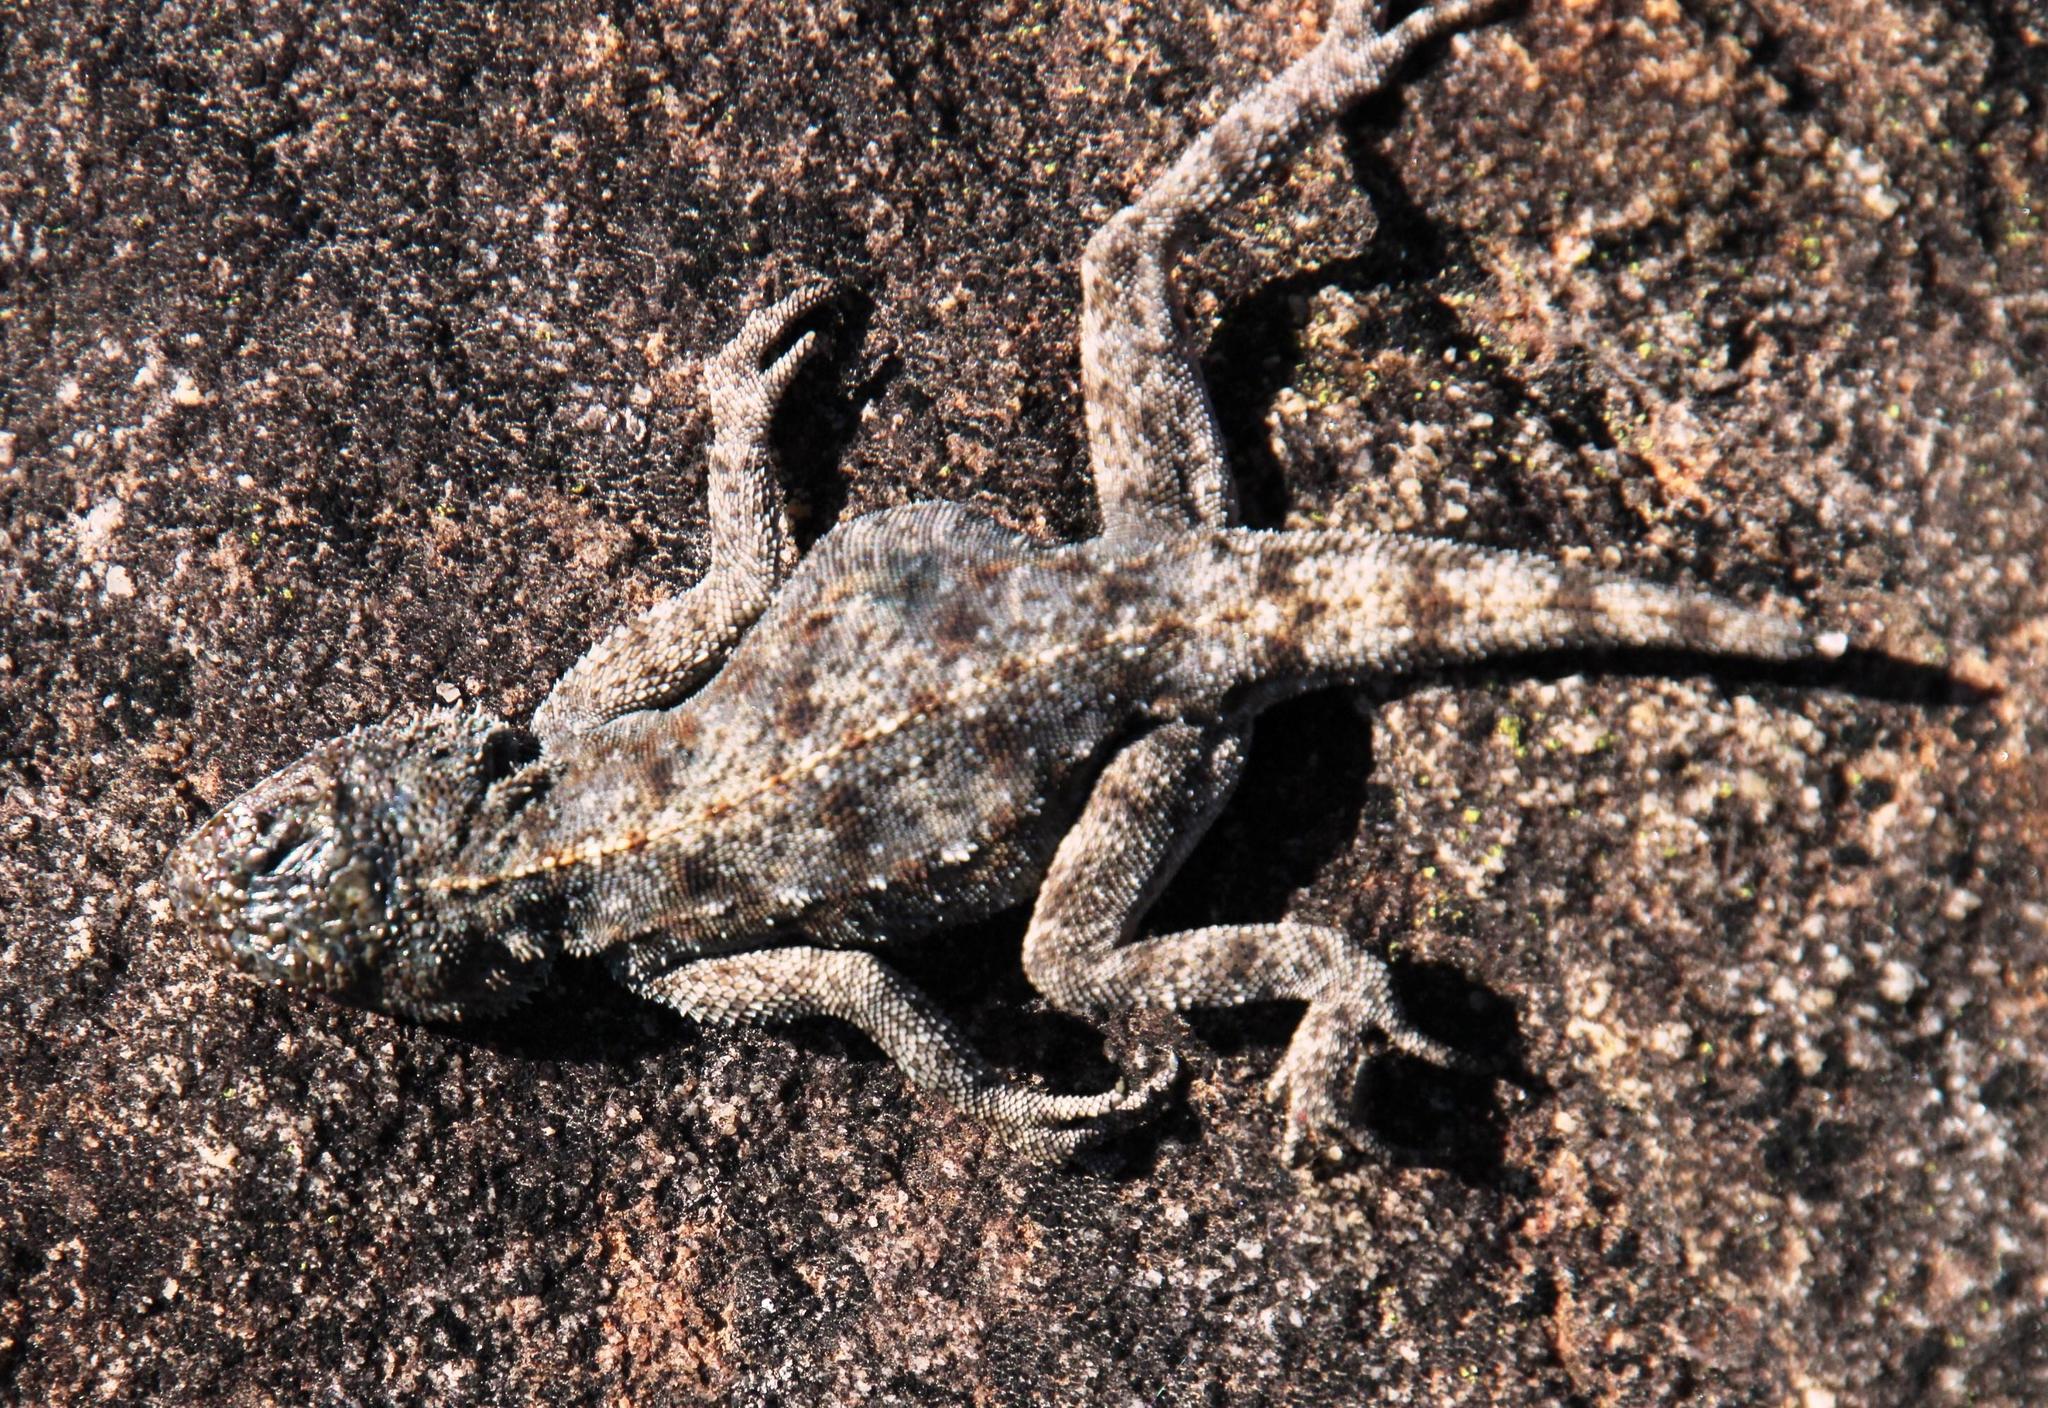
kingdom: Animalia
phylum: Chordata
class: Squamata
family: Agamidae
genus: Agama
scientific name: Agama atra
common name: Southern african rock agama
